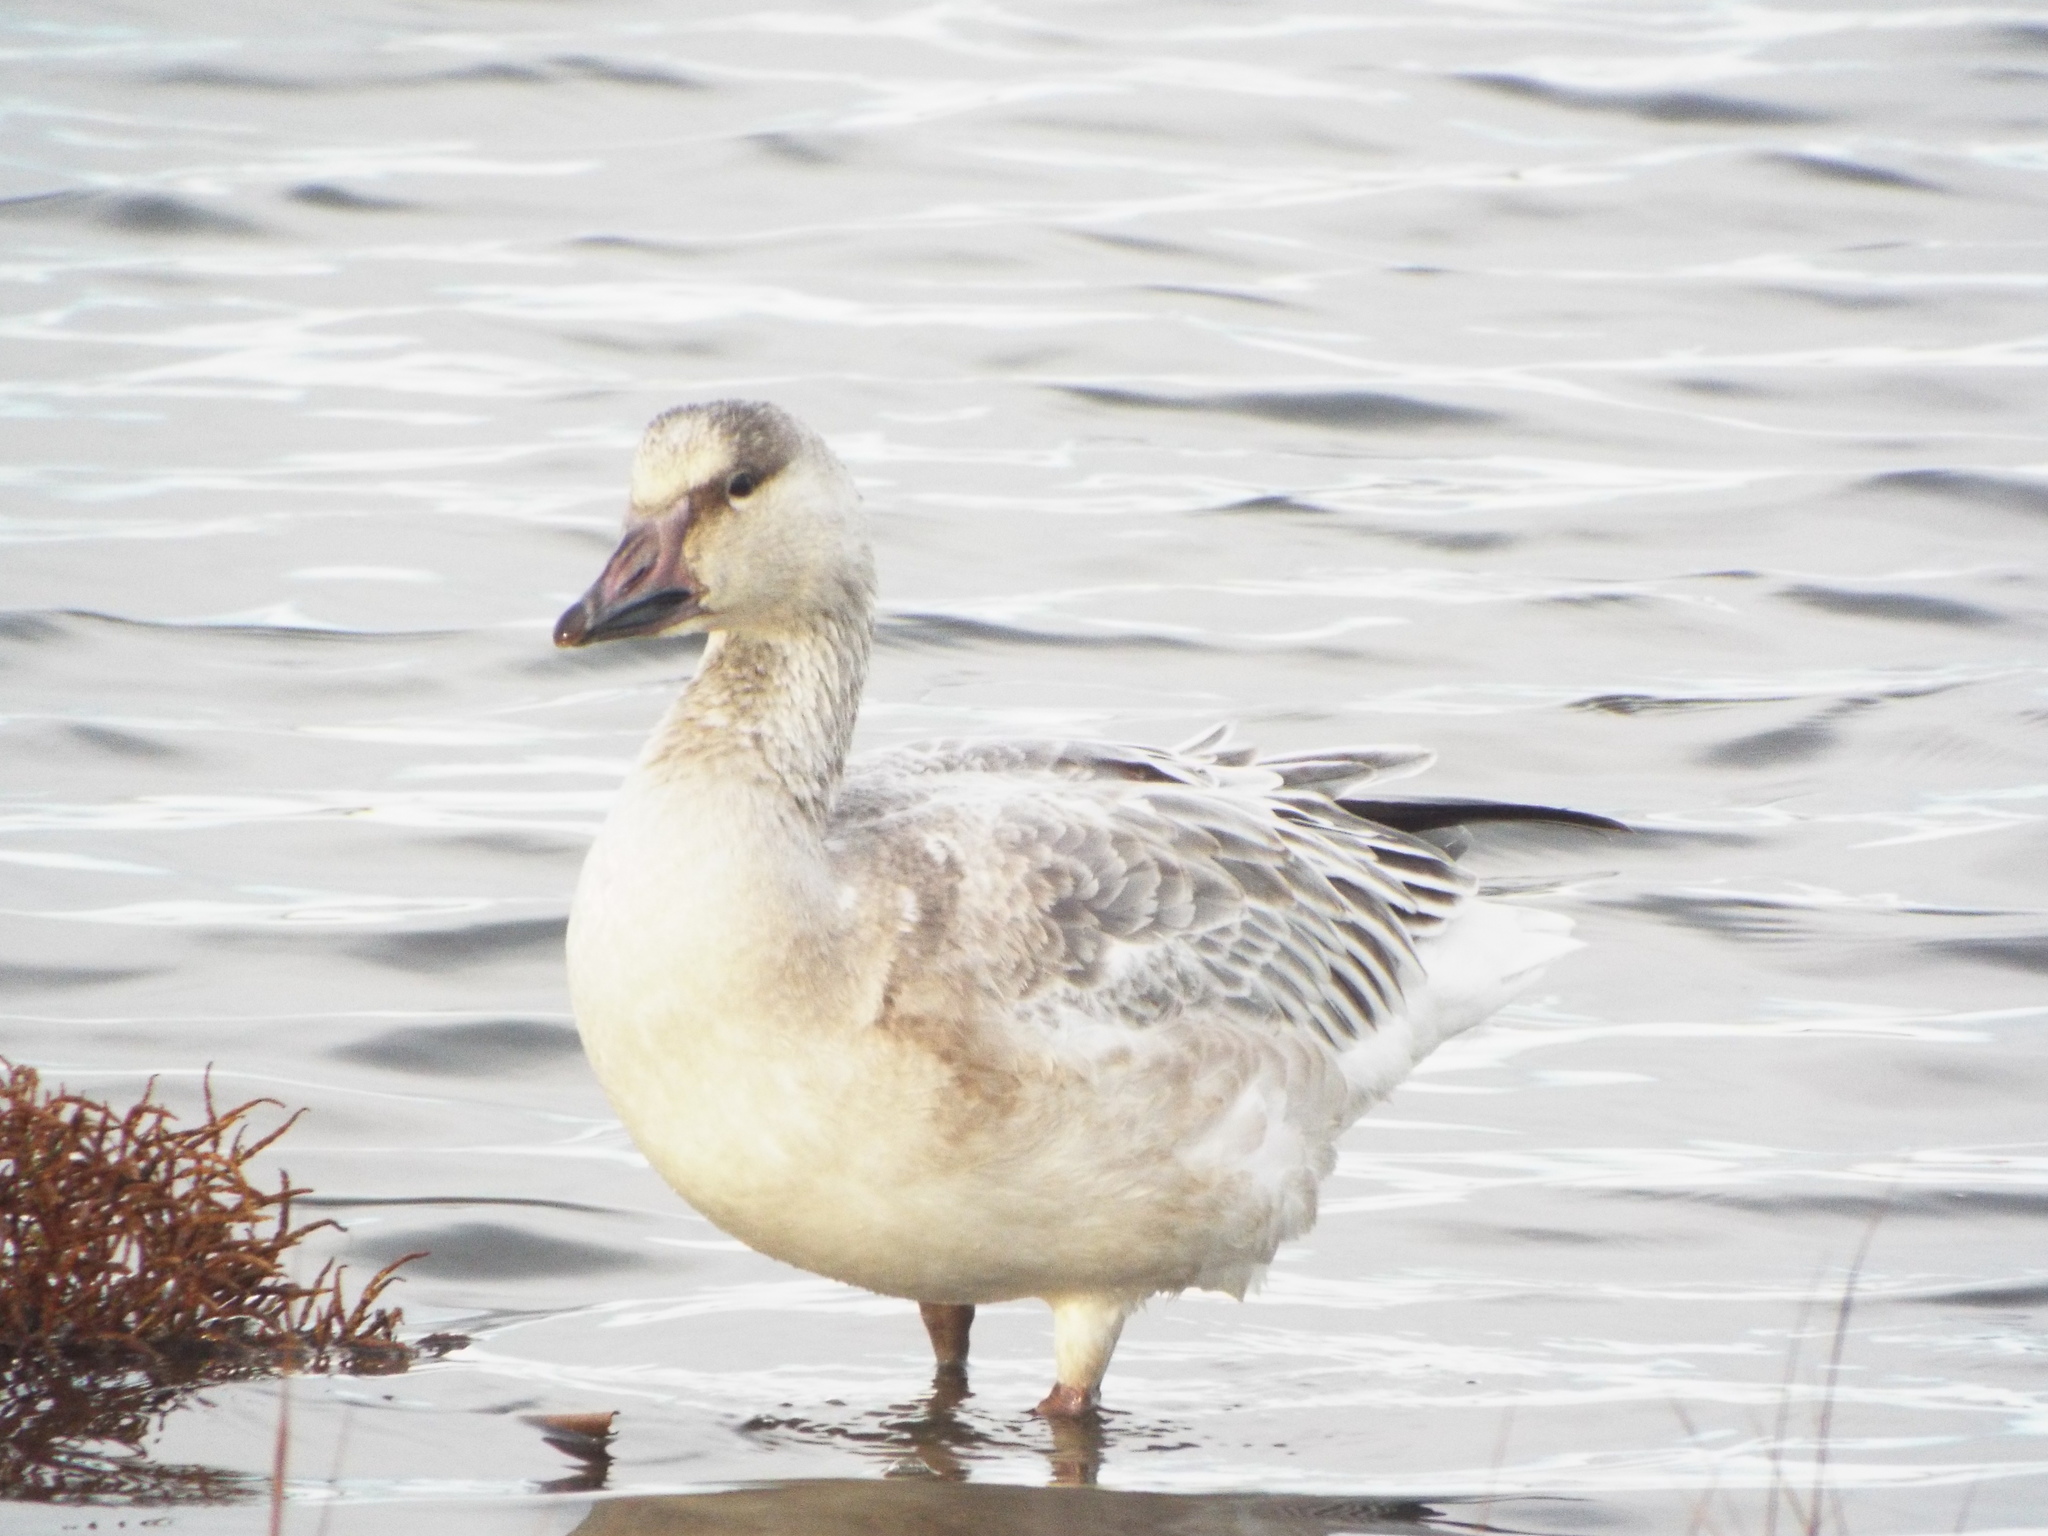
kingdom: Animalia
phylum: Chordata
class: Aves
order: Anseriformes
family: Anatidae
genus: Anser
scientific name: Anser caerulescens
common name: Snow goose
